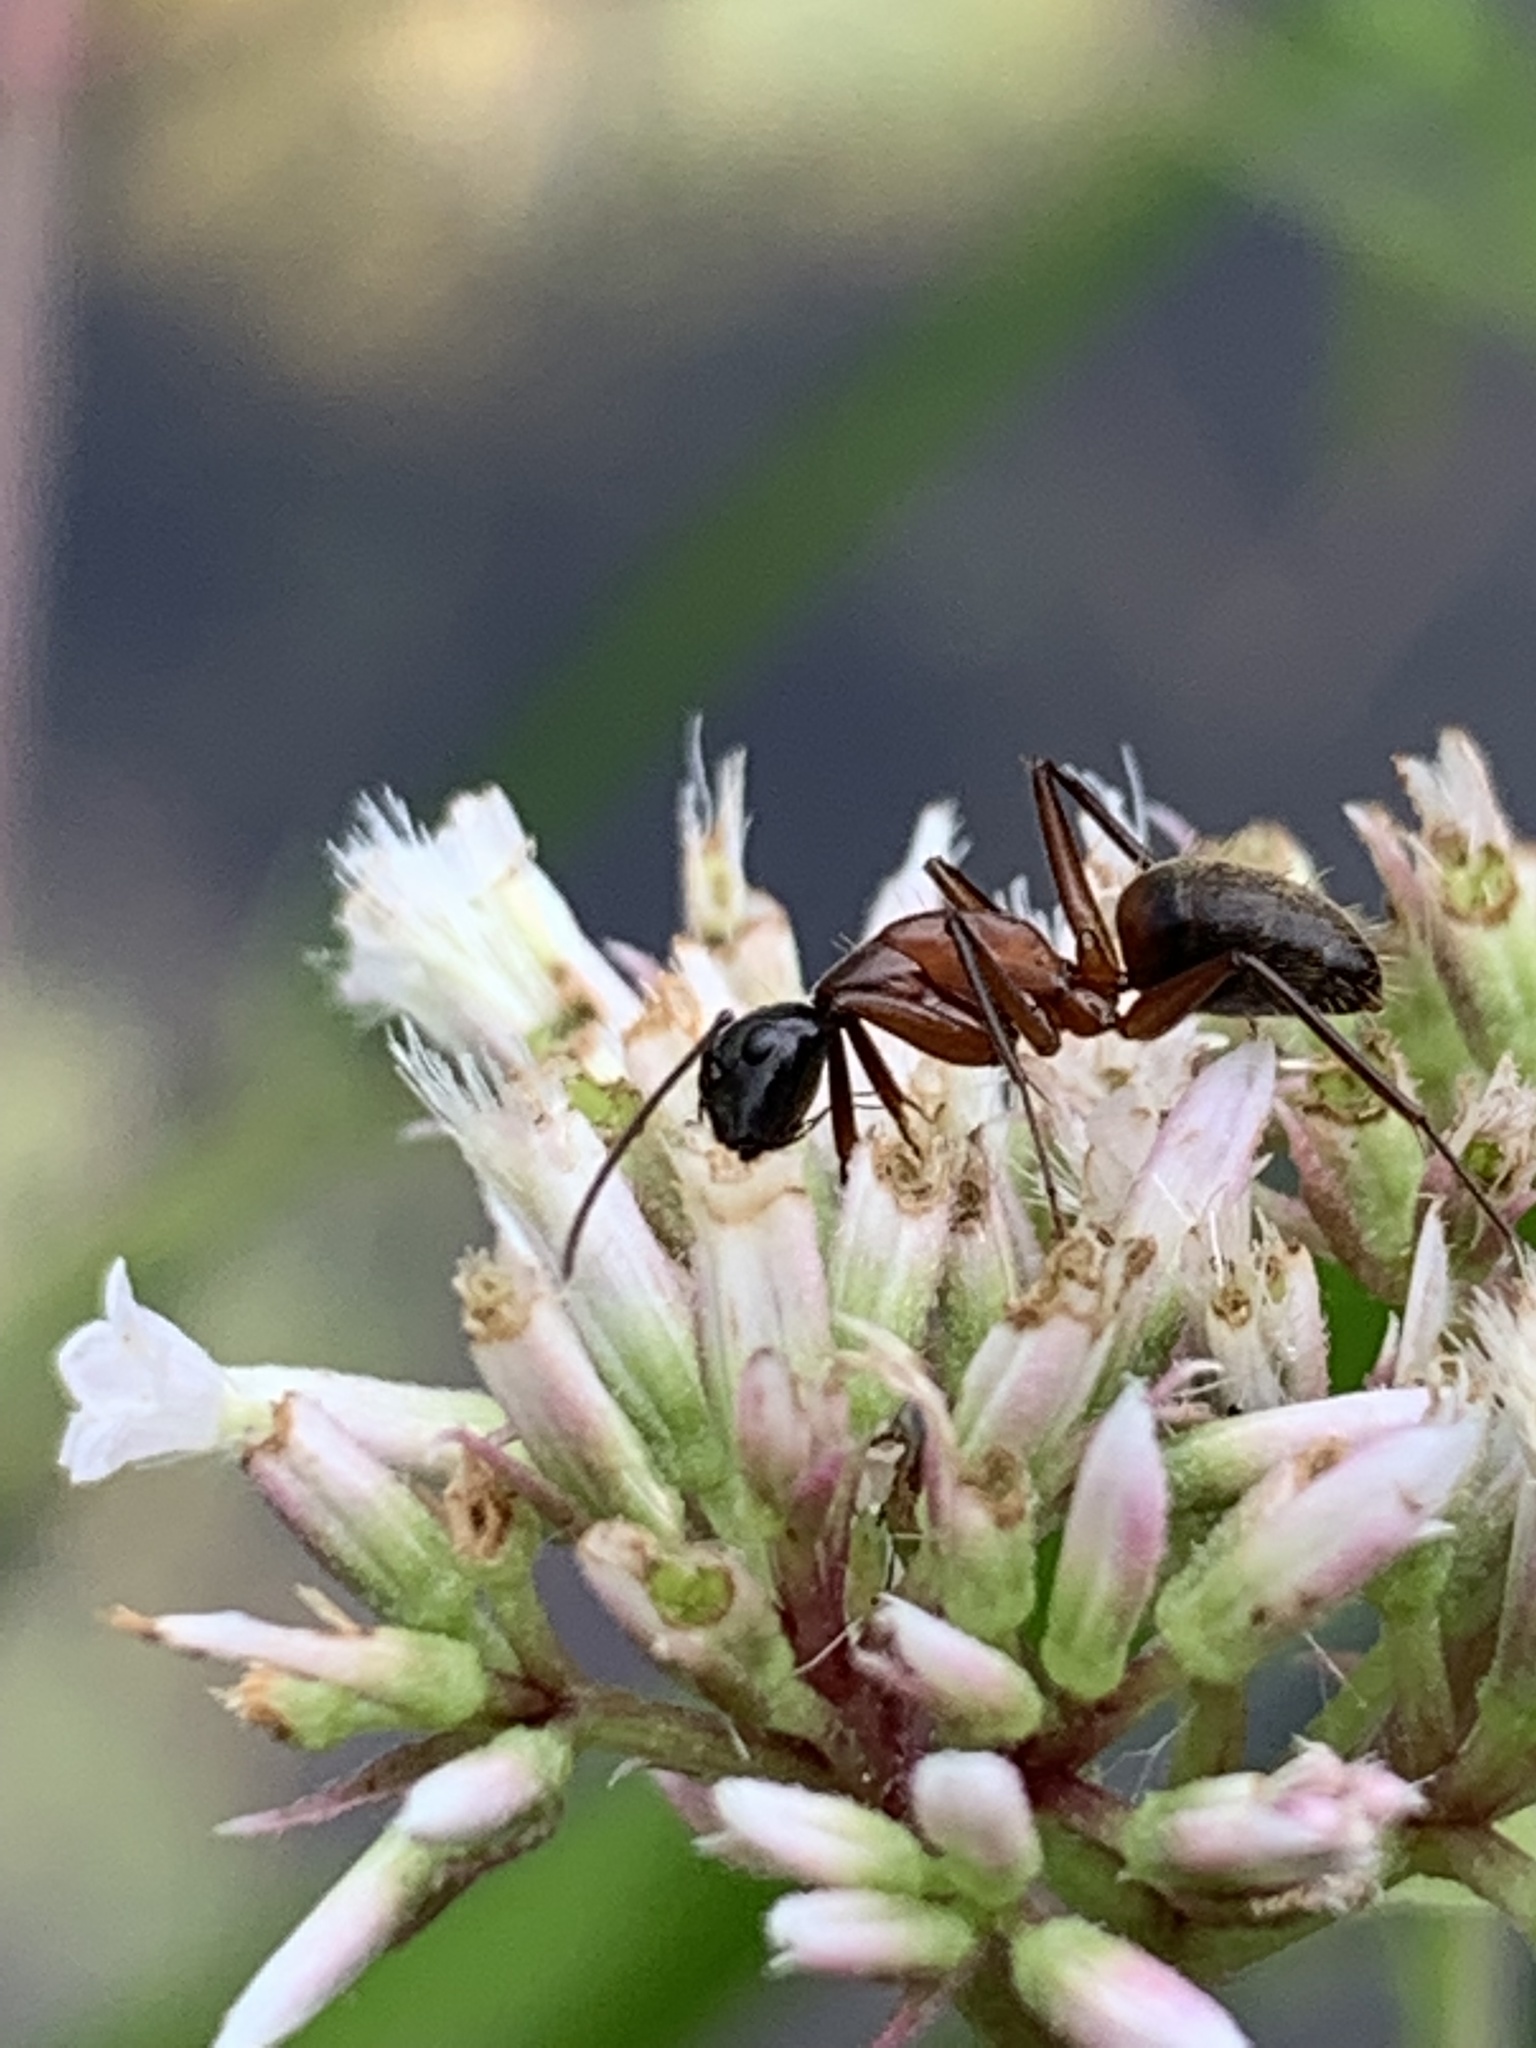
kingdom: Animalia
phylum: Arthropoda
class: Insecta
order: Hymenoptera
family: Formicidae
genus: Camponotus
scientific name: Camponotus chromaiodes
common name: Red carpenter ant
